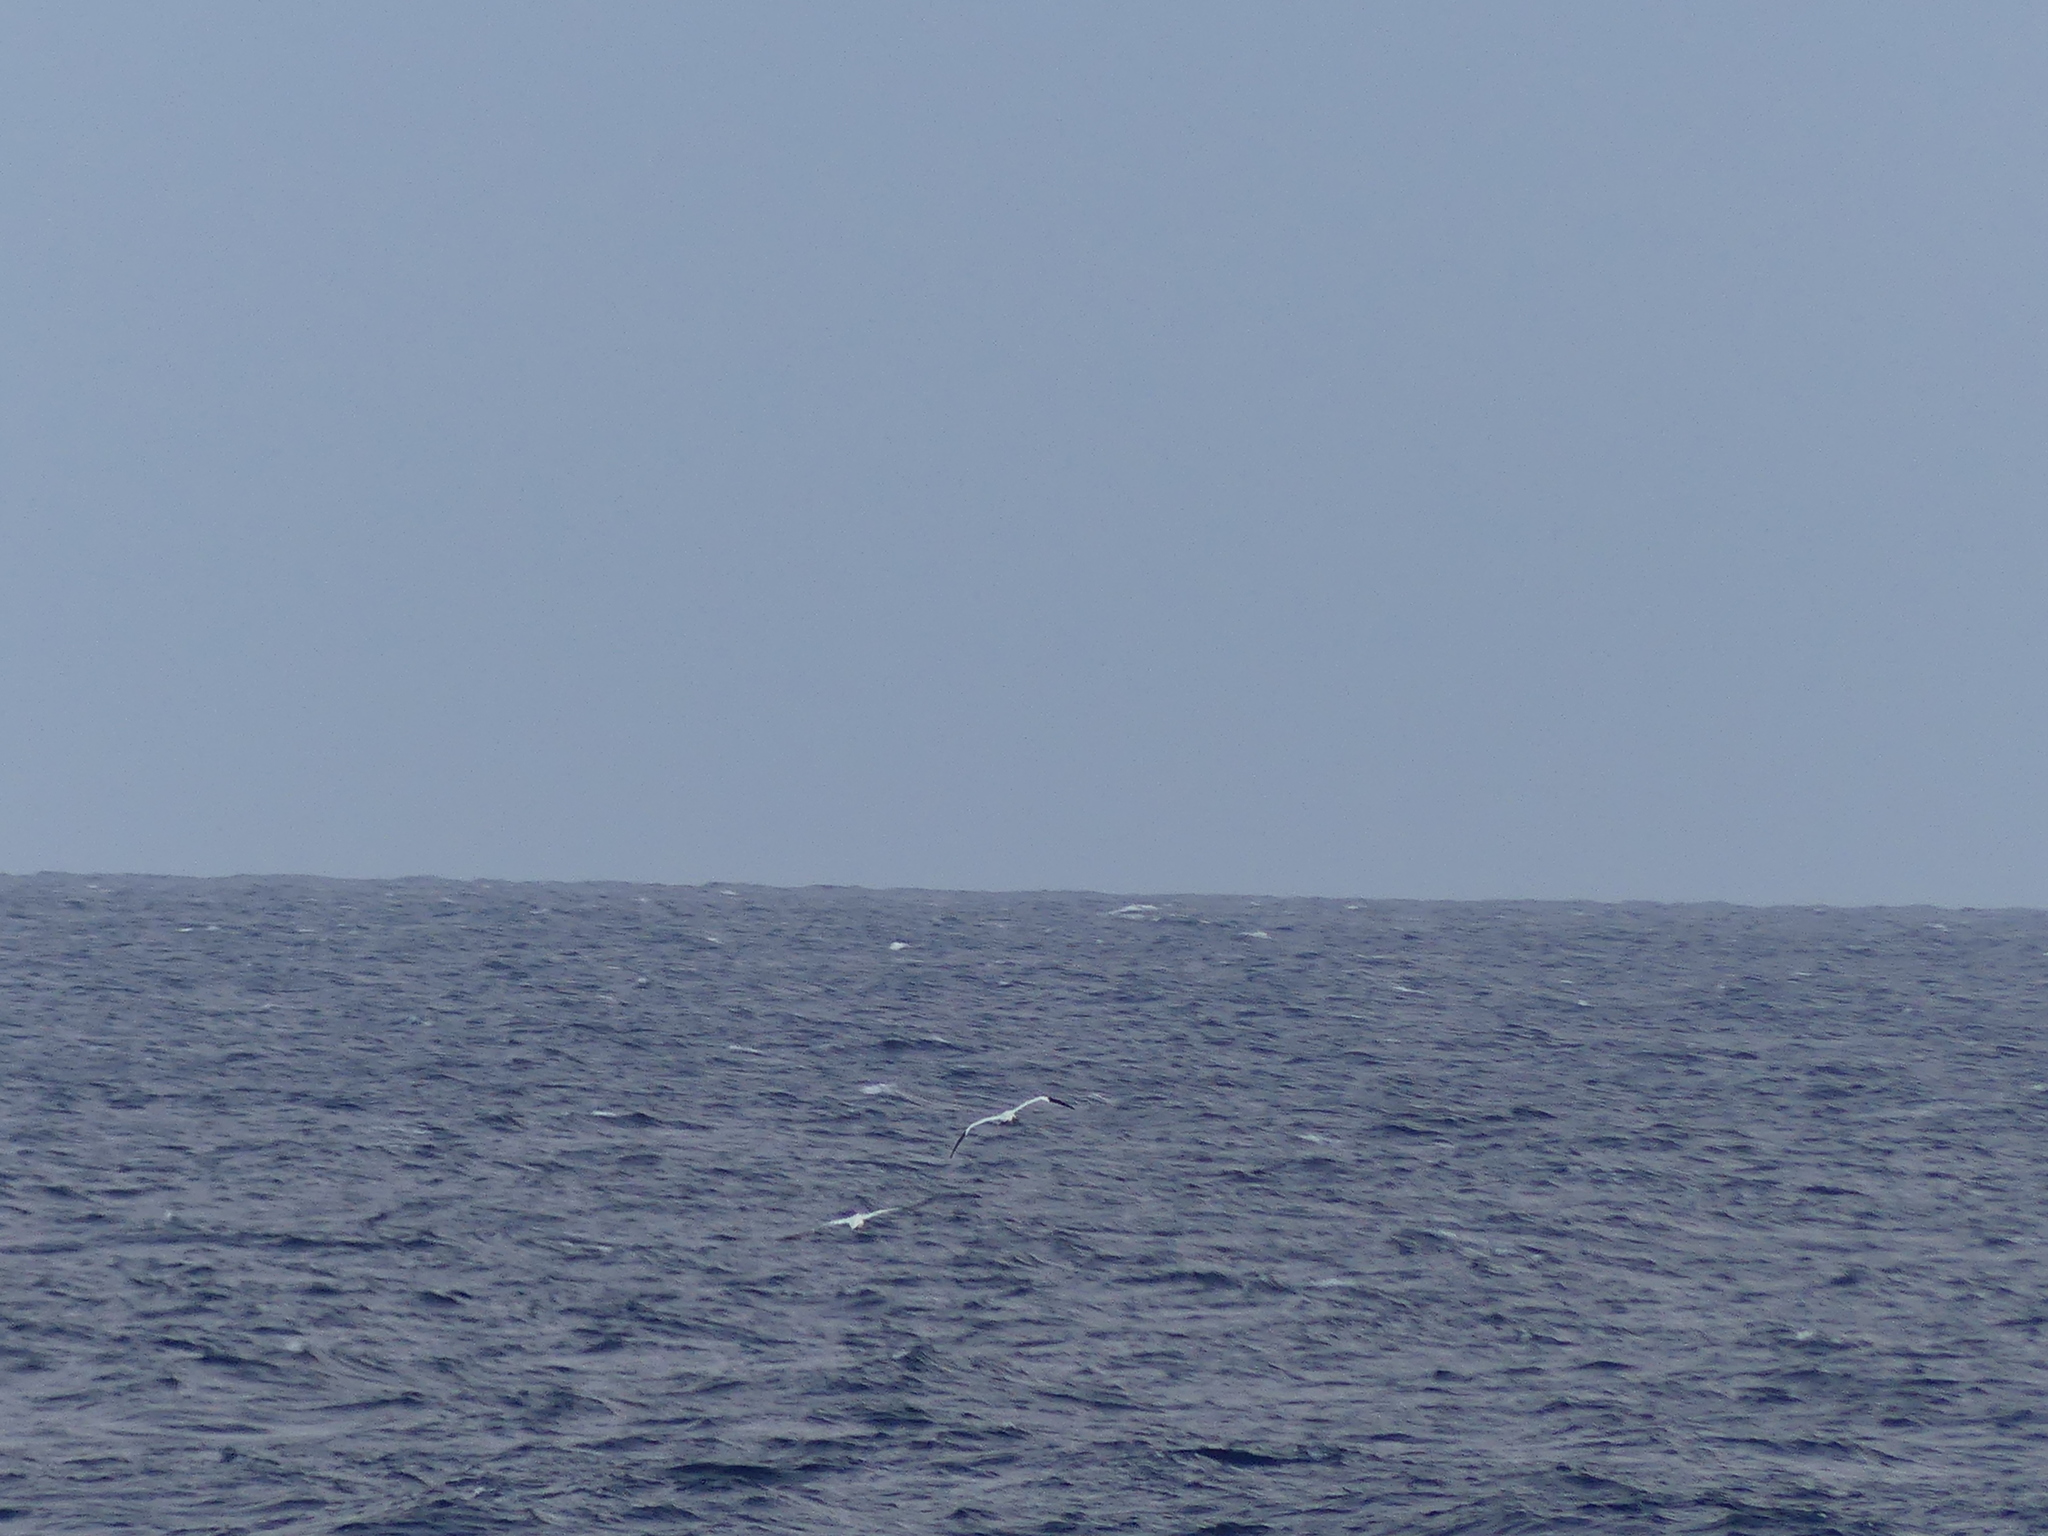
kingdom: Animalia
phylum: Chordata
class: Aves
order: Suliformes
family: Sulidae
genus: Morus
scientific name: Morus bassanus
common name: Northern gannet
